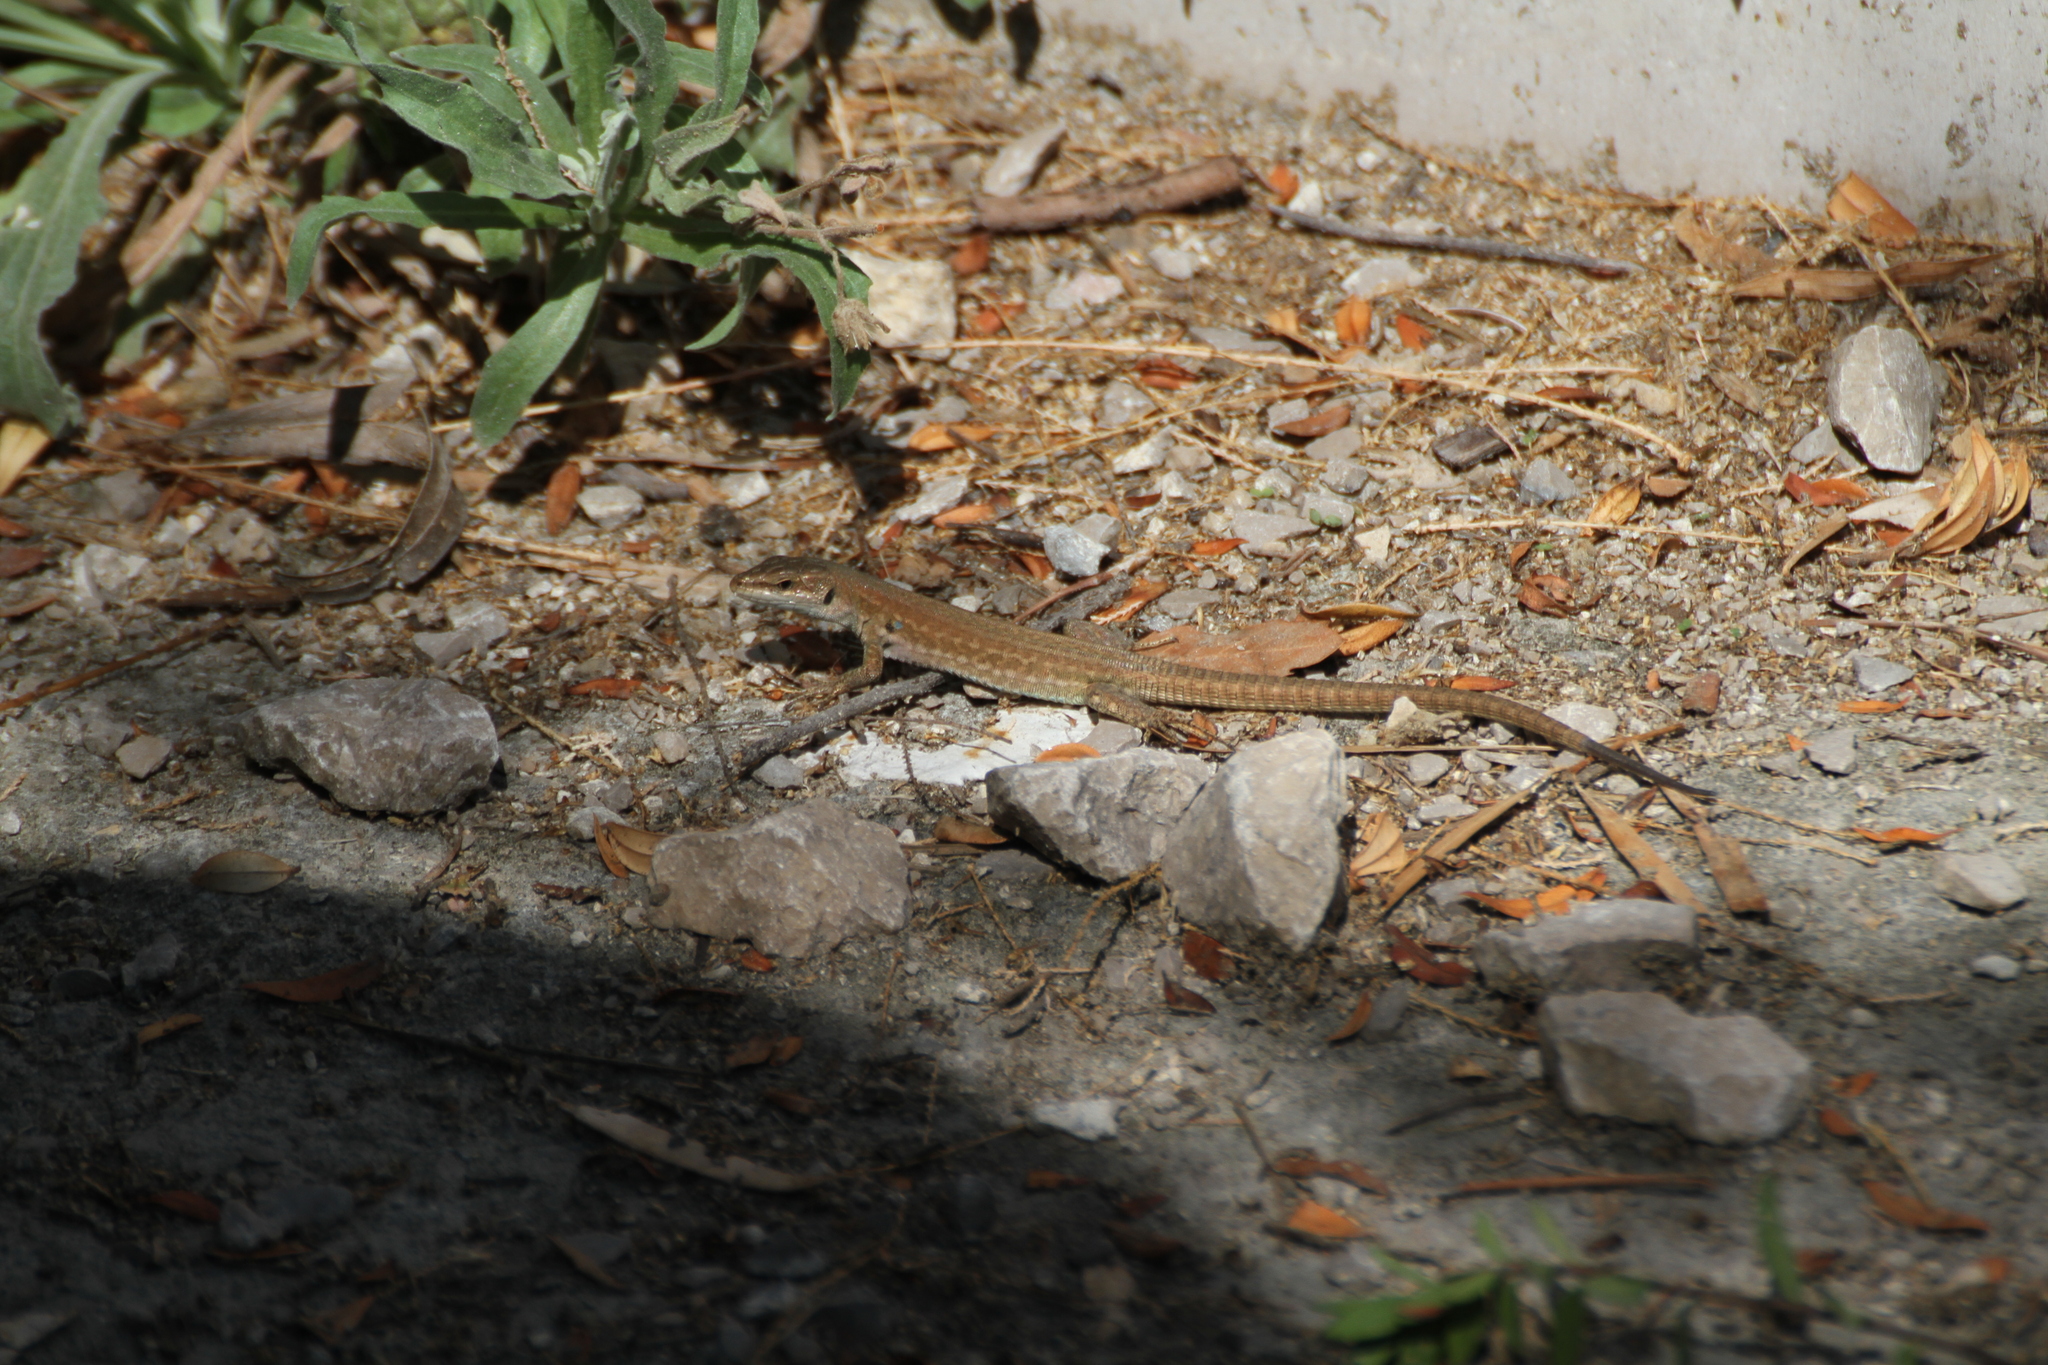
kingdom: Animalia
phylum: Chordata
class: Squamata
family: Lacertidae
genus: Podarcis
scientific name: Podarcis siculus
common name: Italian wall lizard
